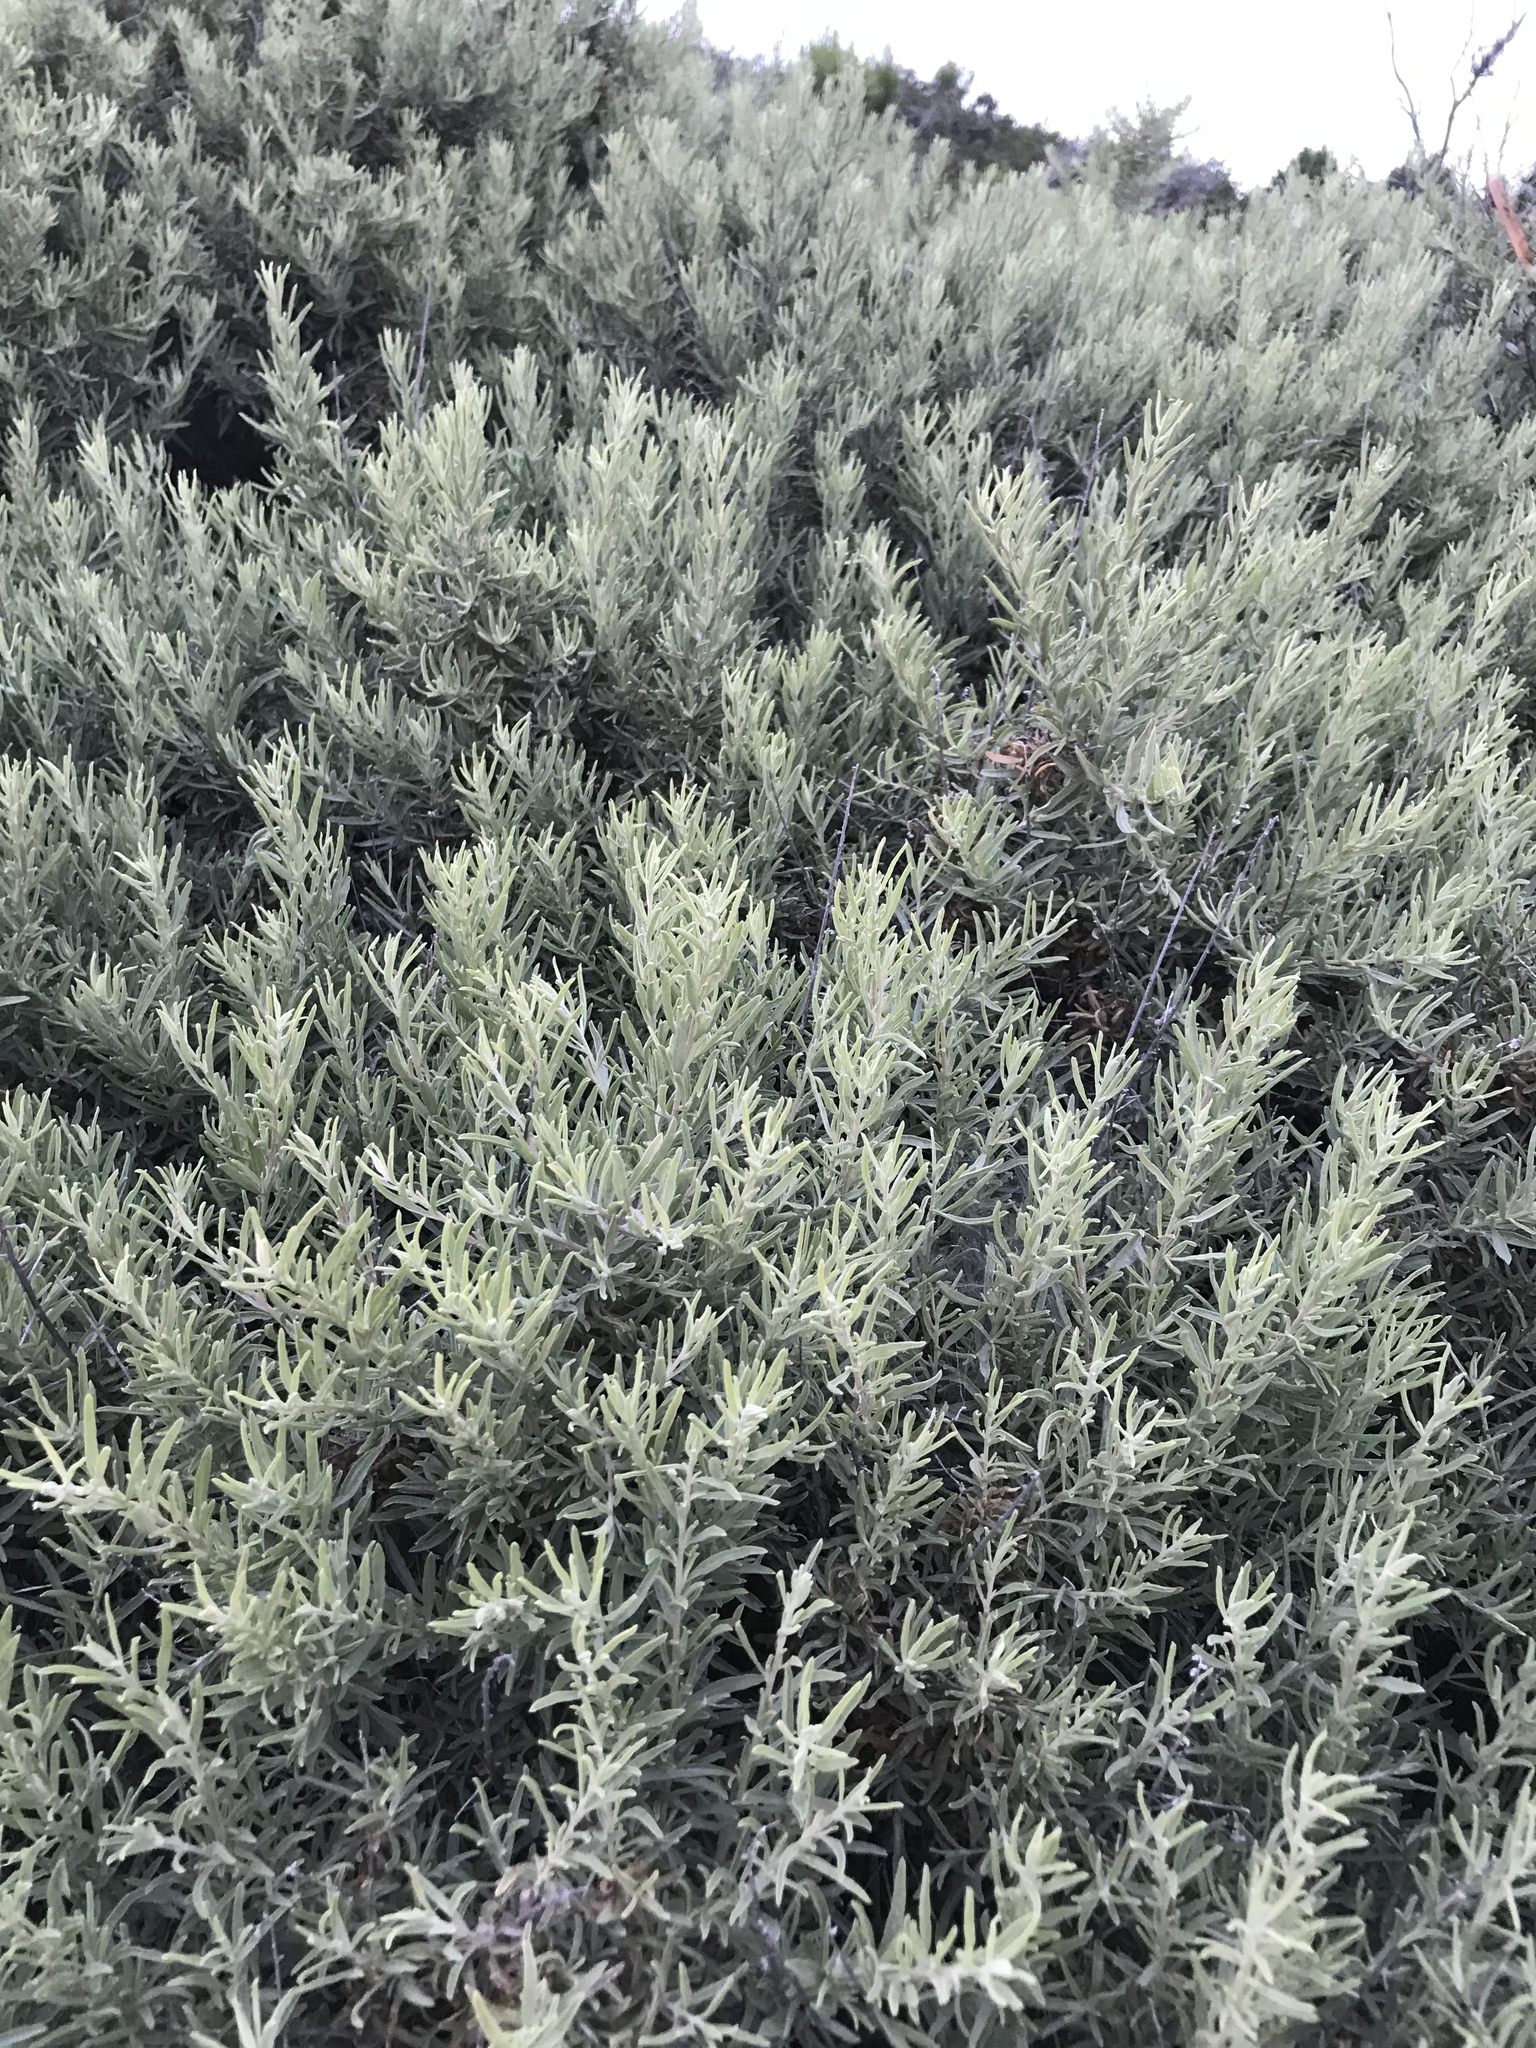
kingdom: Plantae
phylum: Tracheophyta
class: Magnoliopsida
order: Caryophyllales
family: Amaranthaceae
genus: Atriplex
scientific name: Atriplex canescens
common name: Four-wing saltbush
